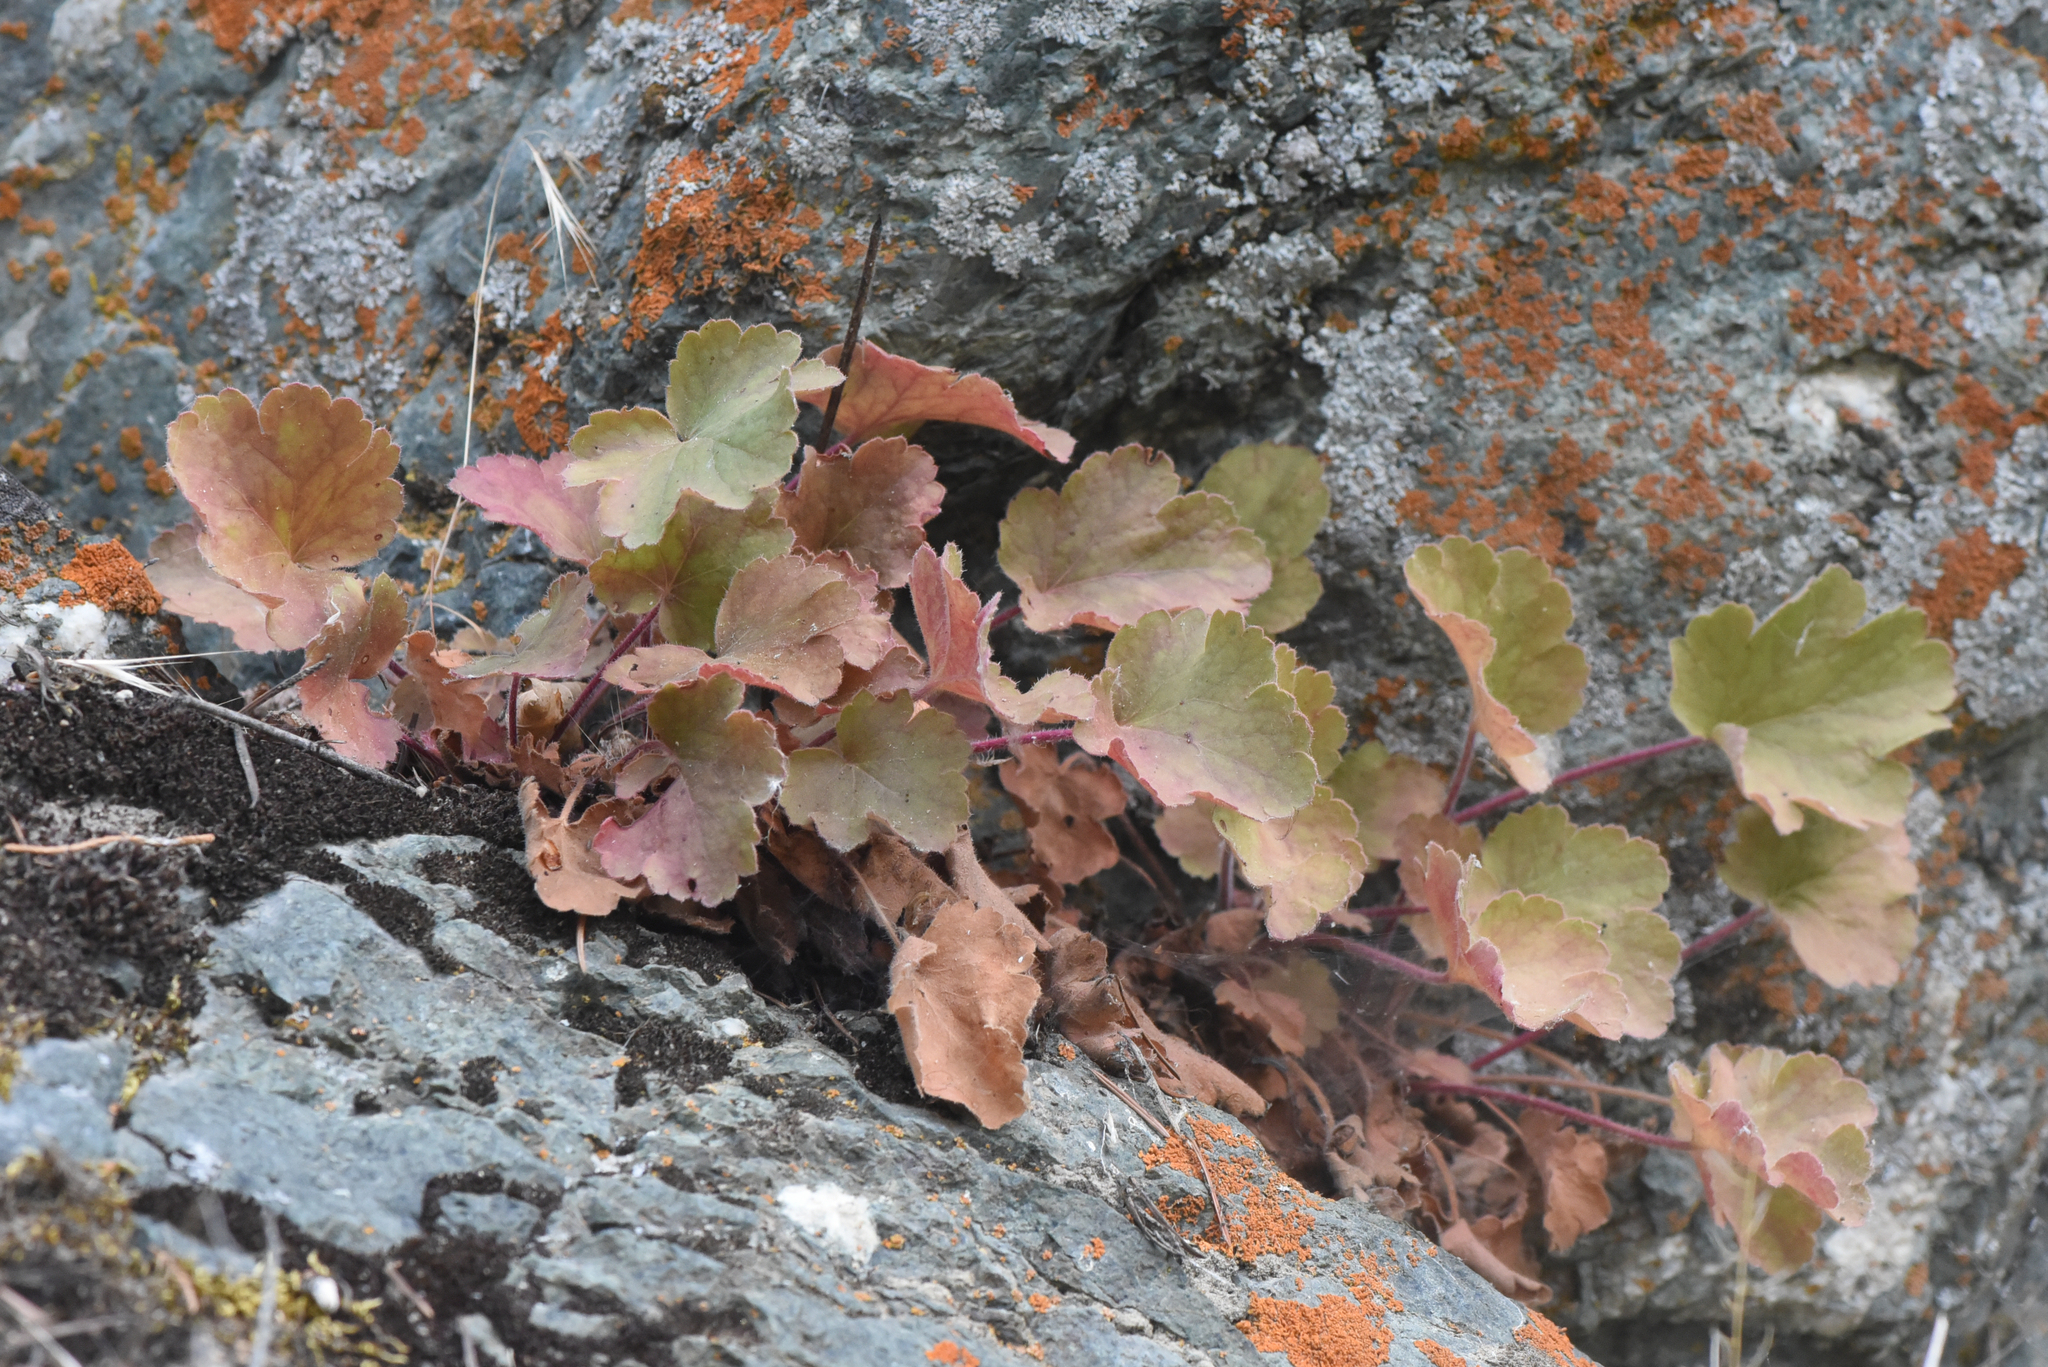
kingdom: Plantae
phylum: Tracheophyta
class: Magnoliopsida
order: Saxifragales
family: Saxifragaceae
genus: Heuchera
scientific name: Heuchera cylindrica
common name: Mat alumroot
